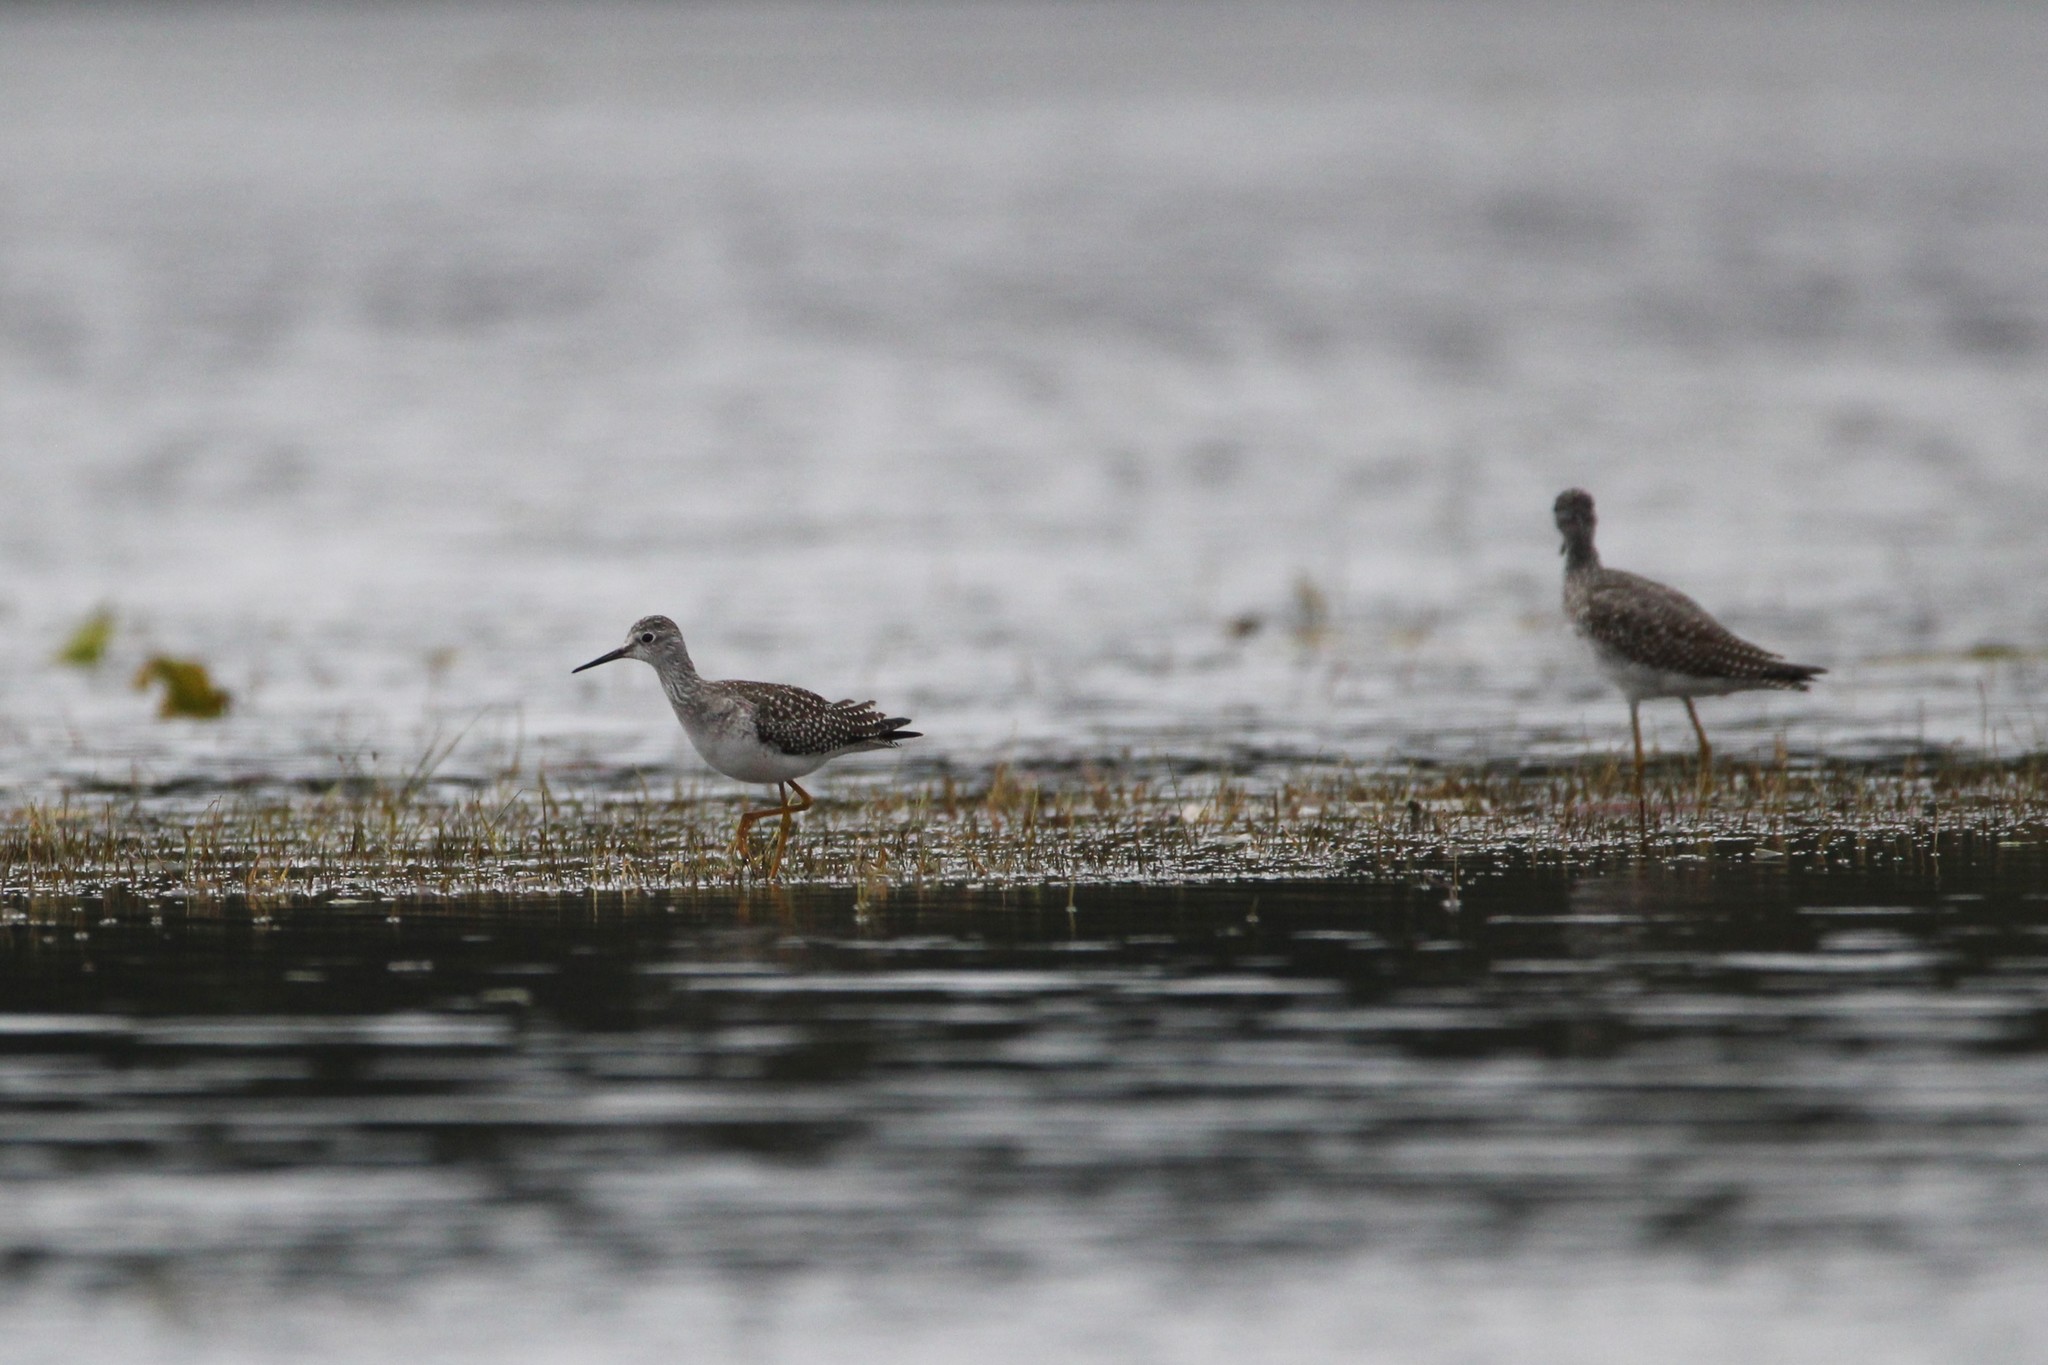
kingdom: Animalia
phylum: Chordata
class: Aves
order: Charadriiformes
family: Scolopacidae
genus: Tringa
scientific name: Tringa flavipes
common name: Lesser yellowlegs
